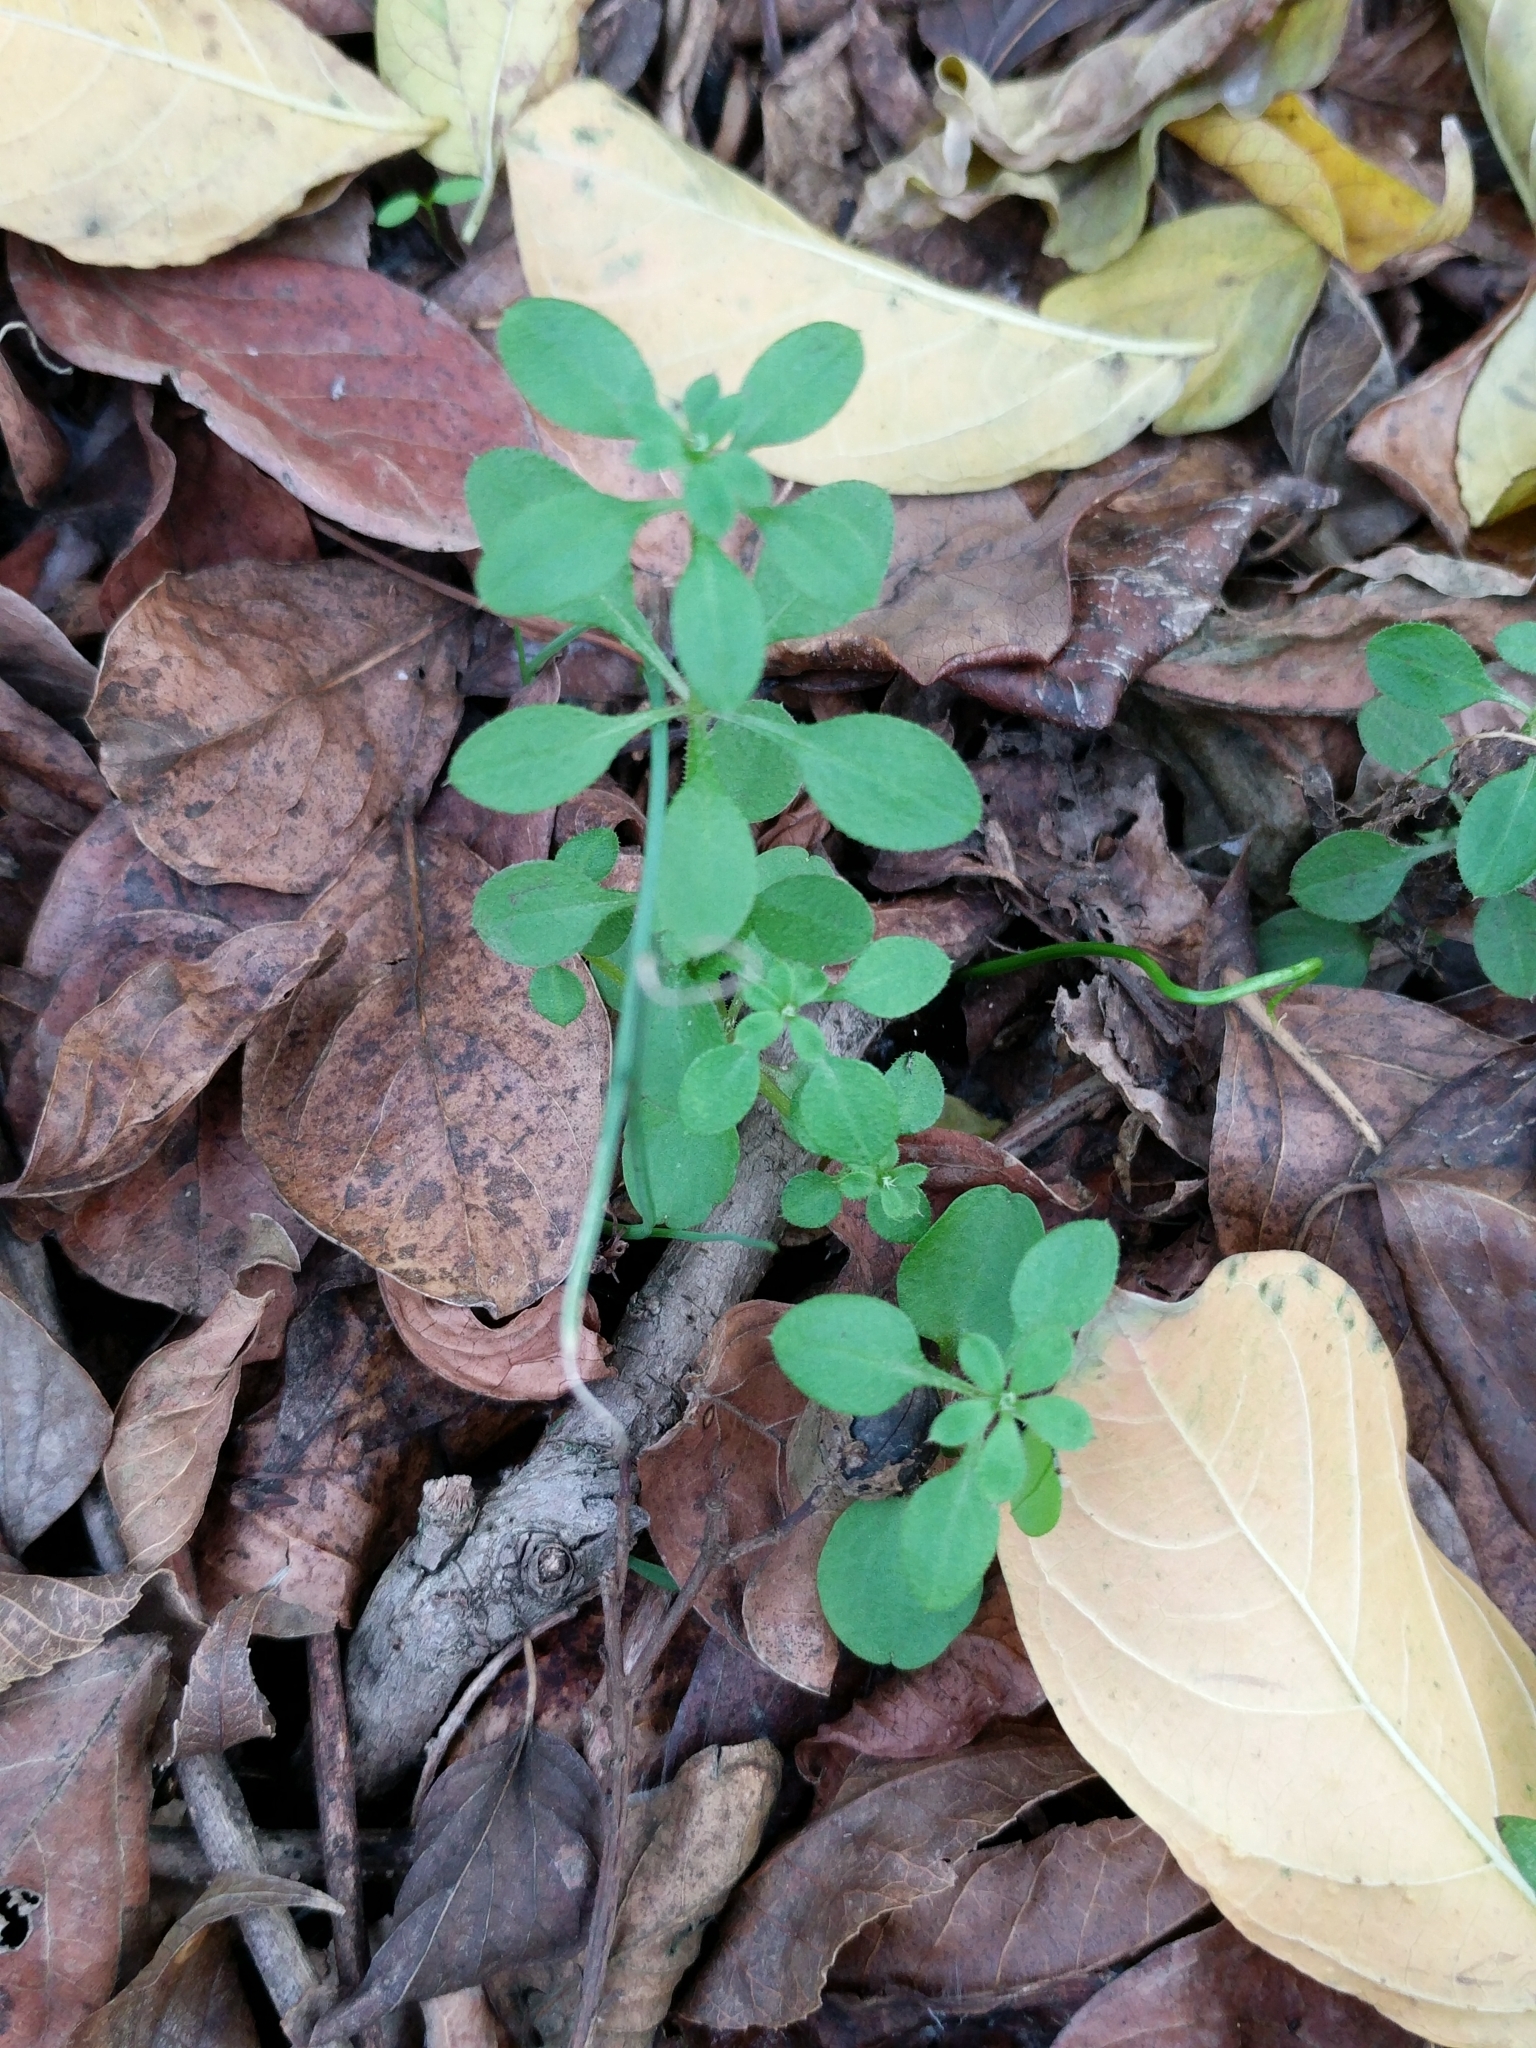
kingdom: Plantae
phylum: Tracheophyta
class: Magnoliopsida
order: Gentianales
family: Rubiaceae
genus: Galium
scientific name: Galium aparine
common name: Cleavers
